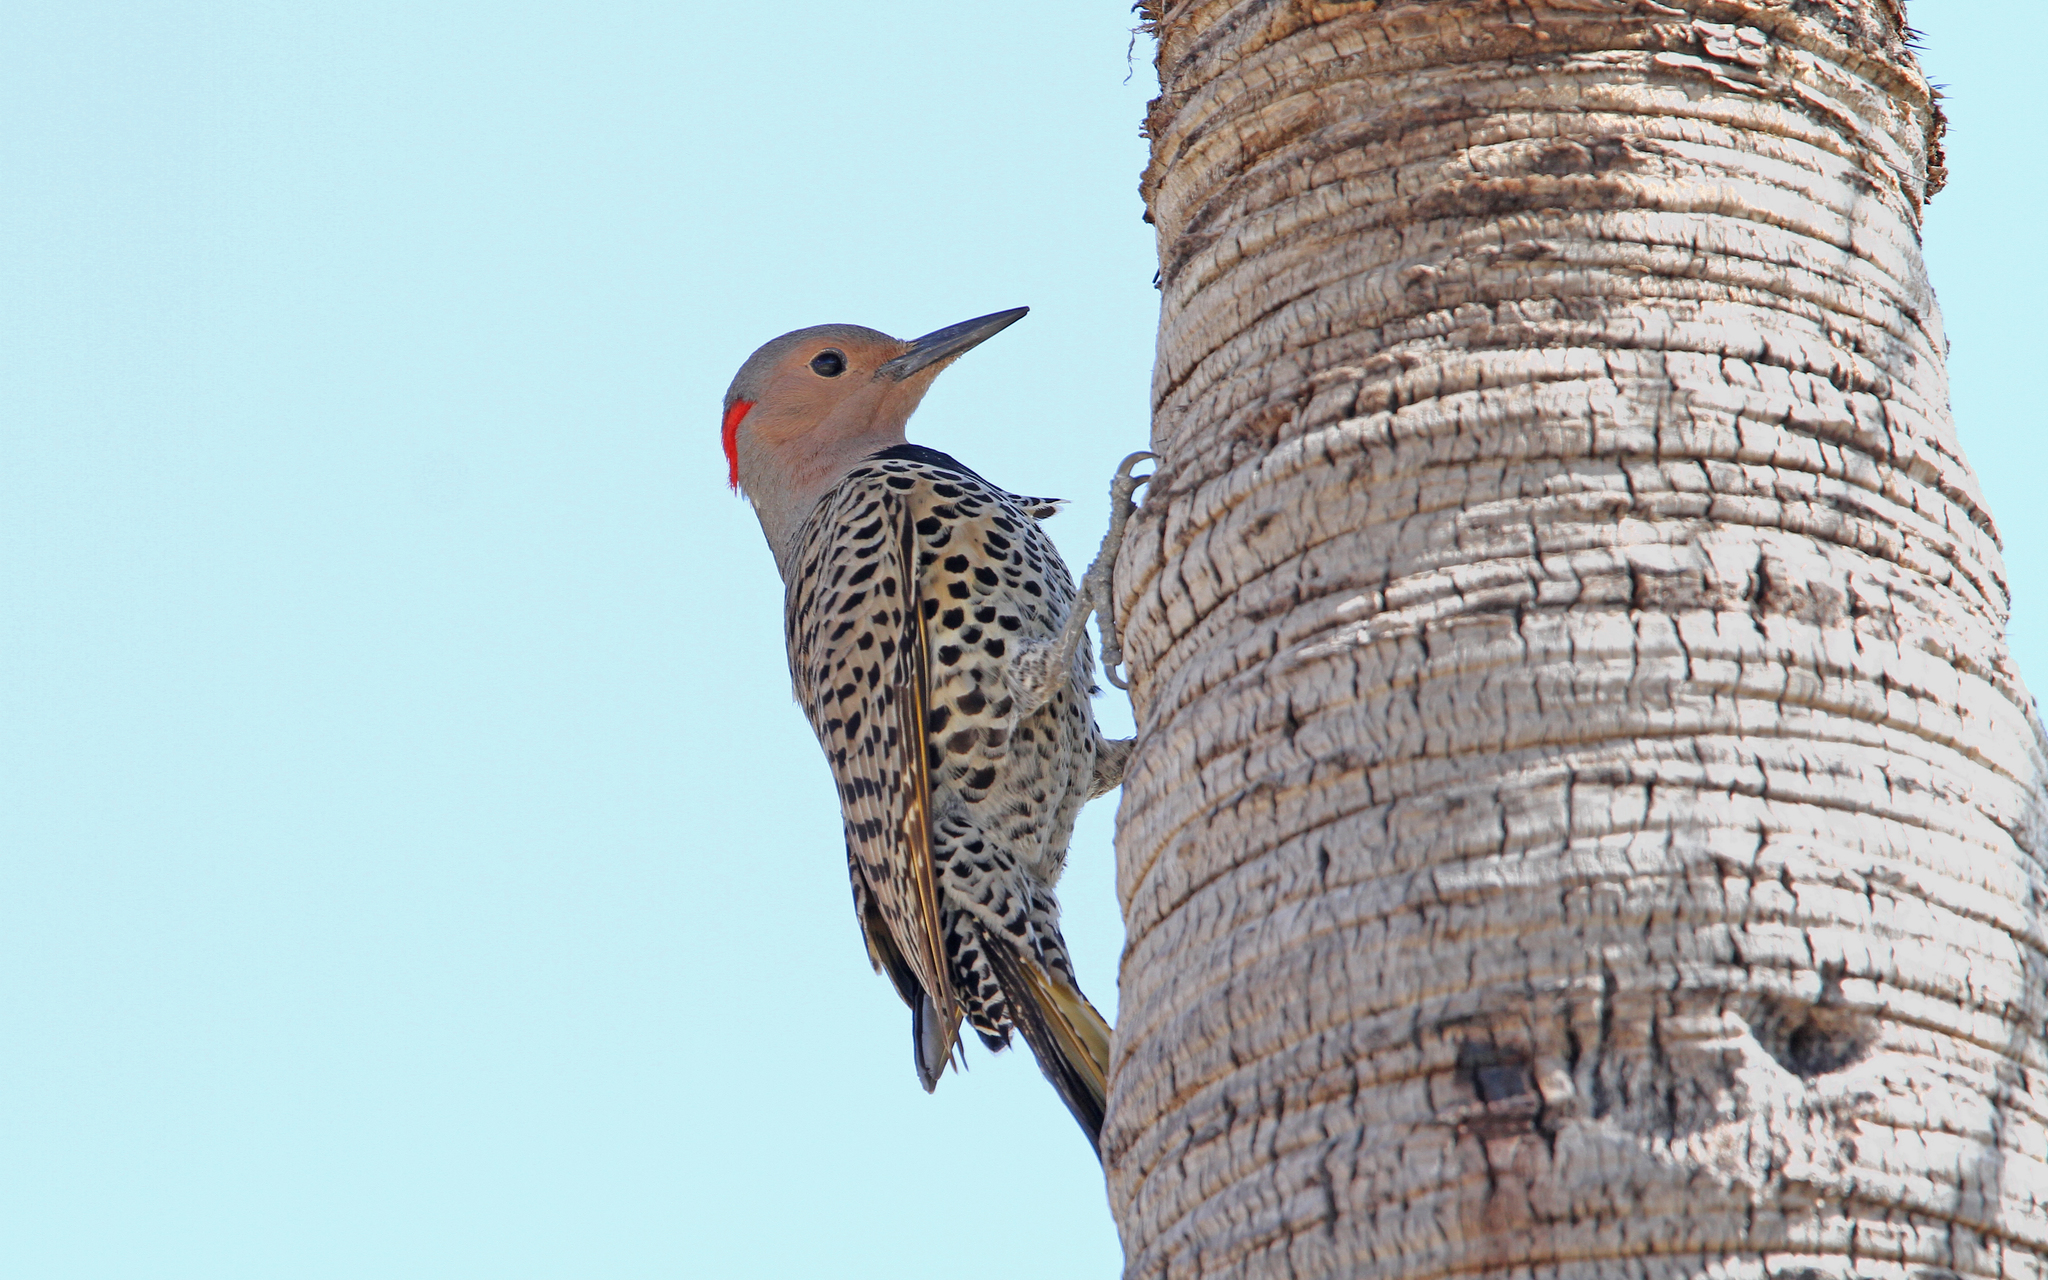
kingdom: Animalia
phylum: Chordata
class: Aves
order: Piciformes
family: Picidae
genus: Colaptes
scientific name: Colaptes auratus
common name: Northern flicker
